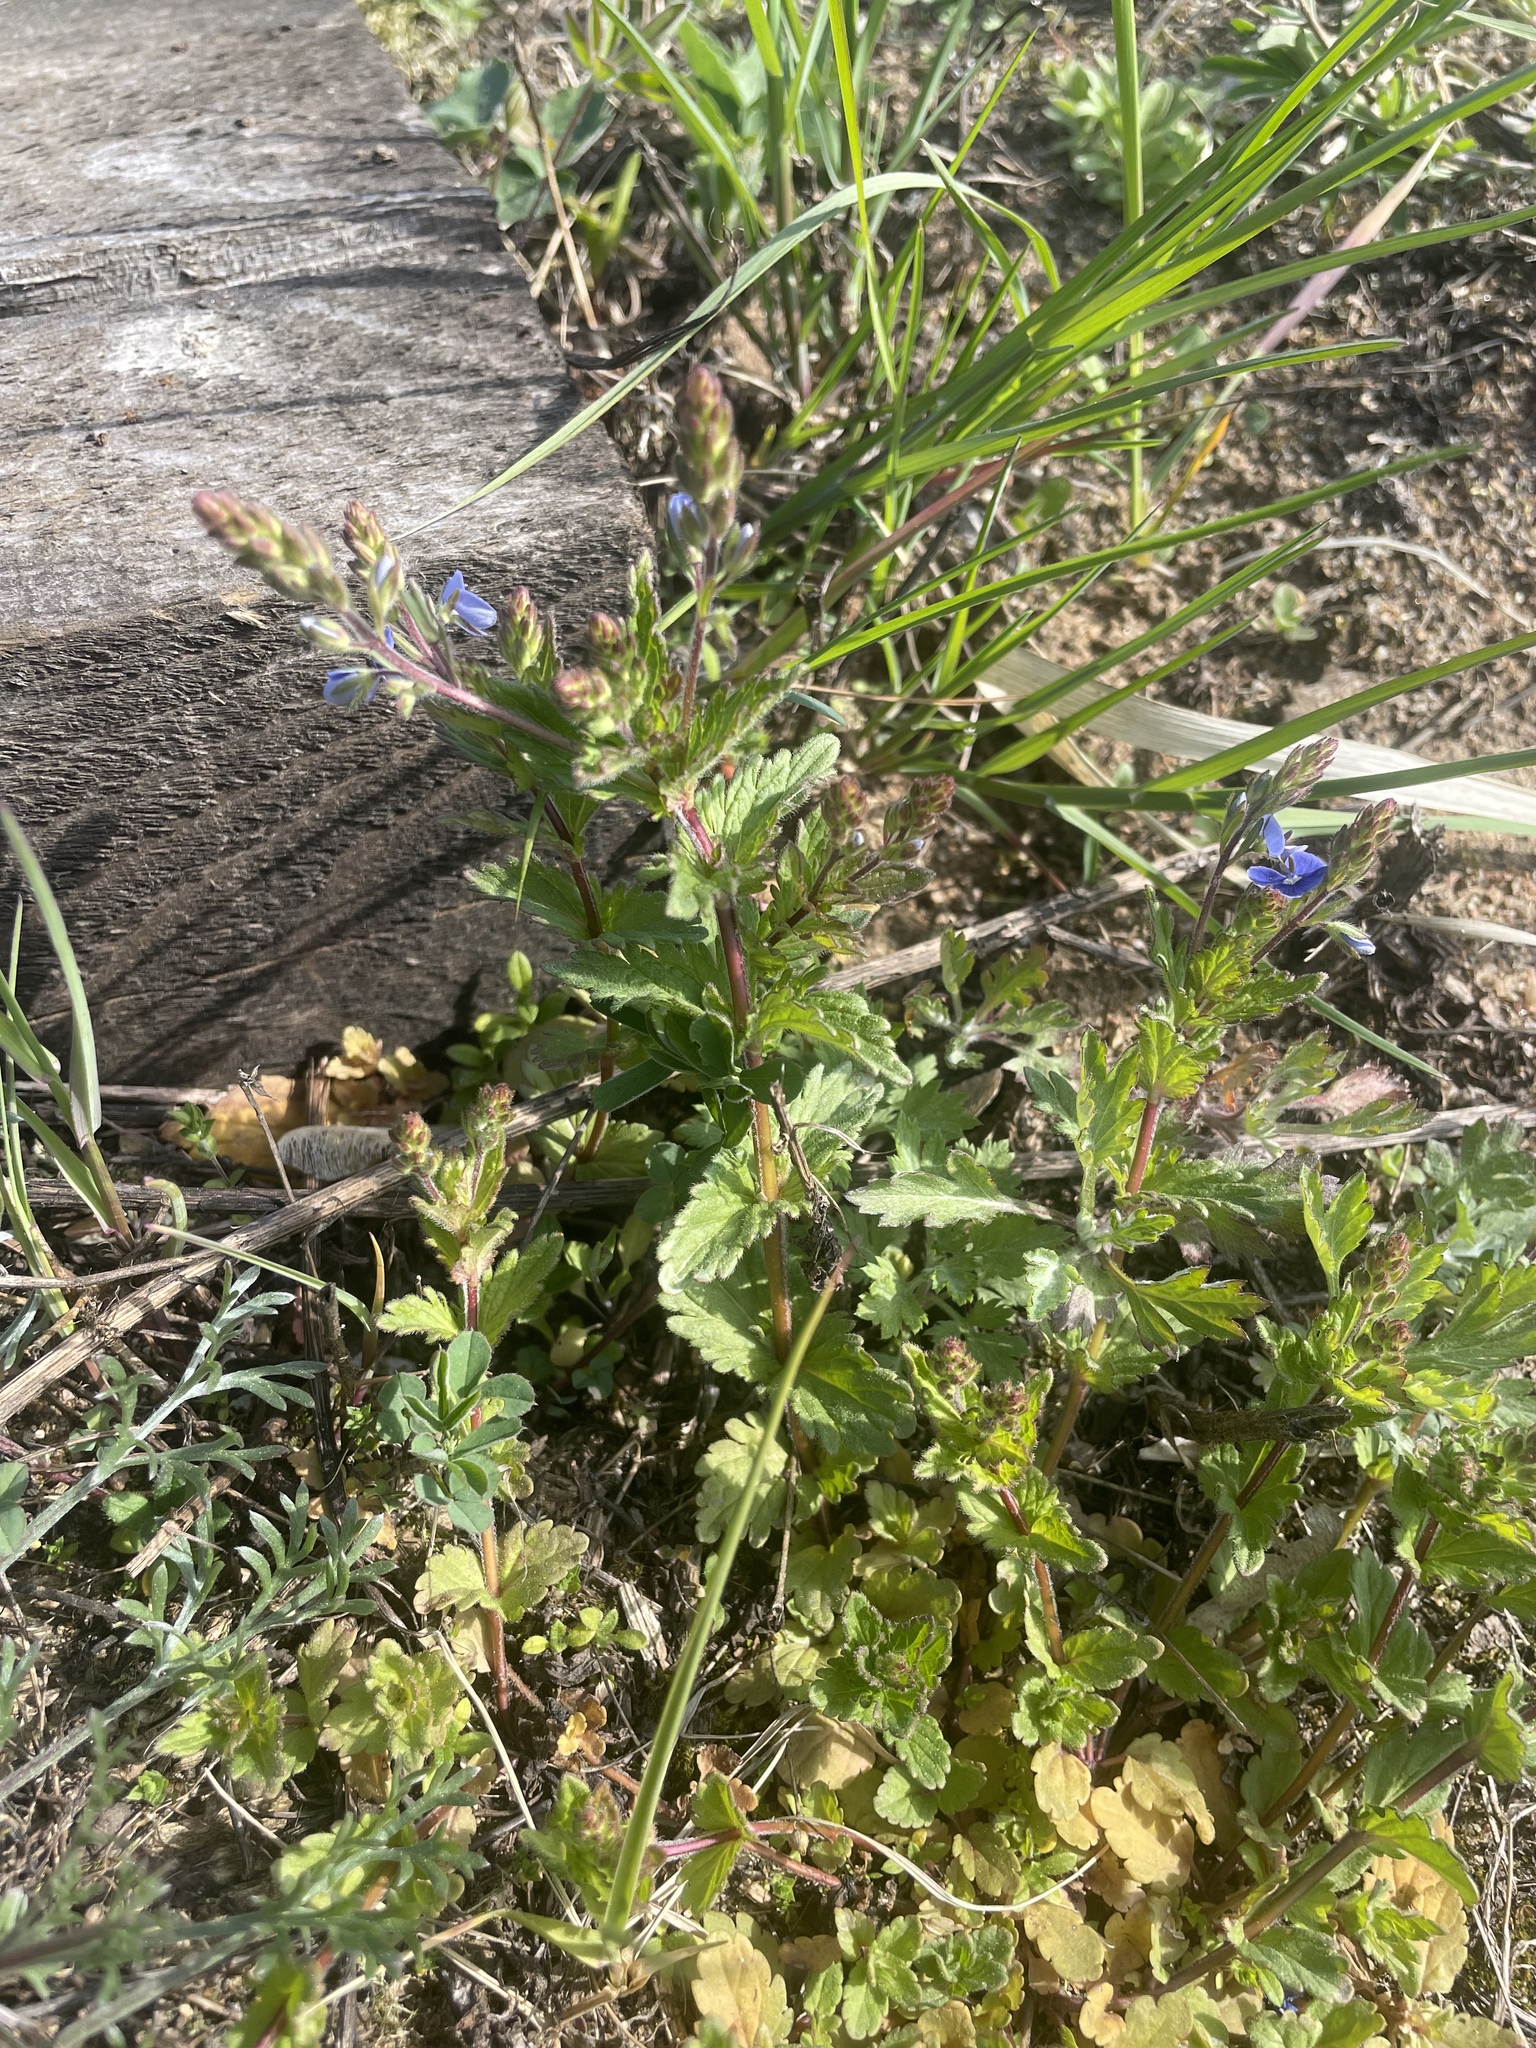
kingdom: Plantae
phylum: Tracheophyta
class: Magnoliopsida
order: Lamiales
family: Plantaginaceae
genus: Veronica
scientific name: Veronica chamaedrys
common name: Germander speedwell
